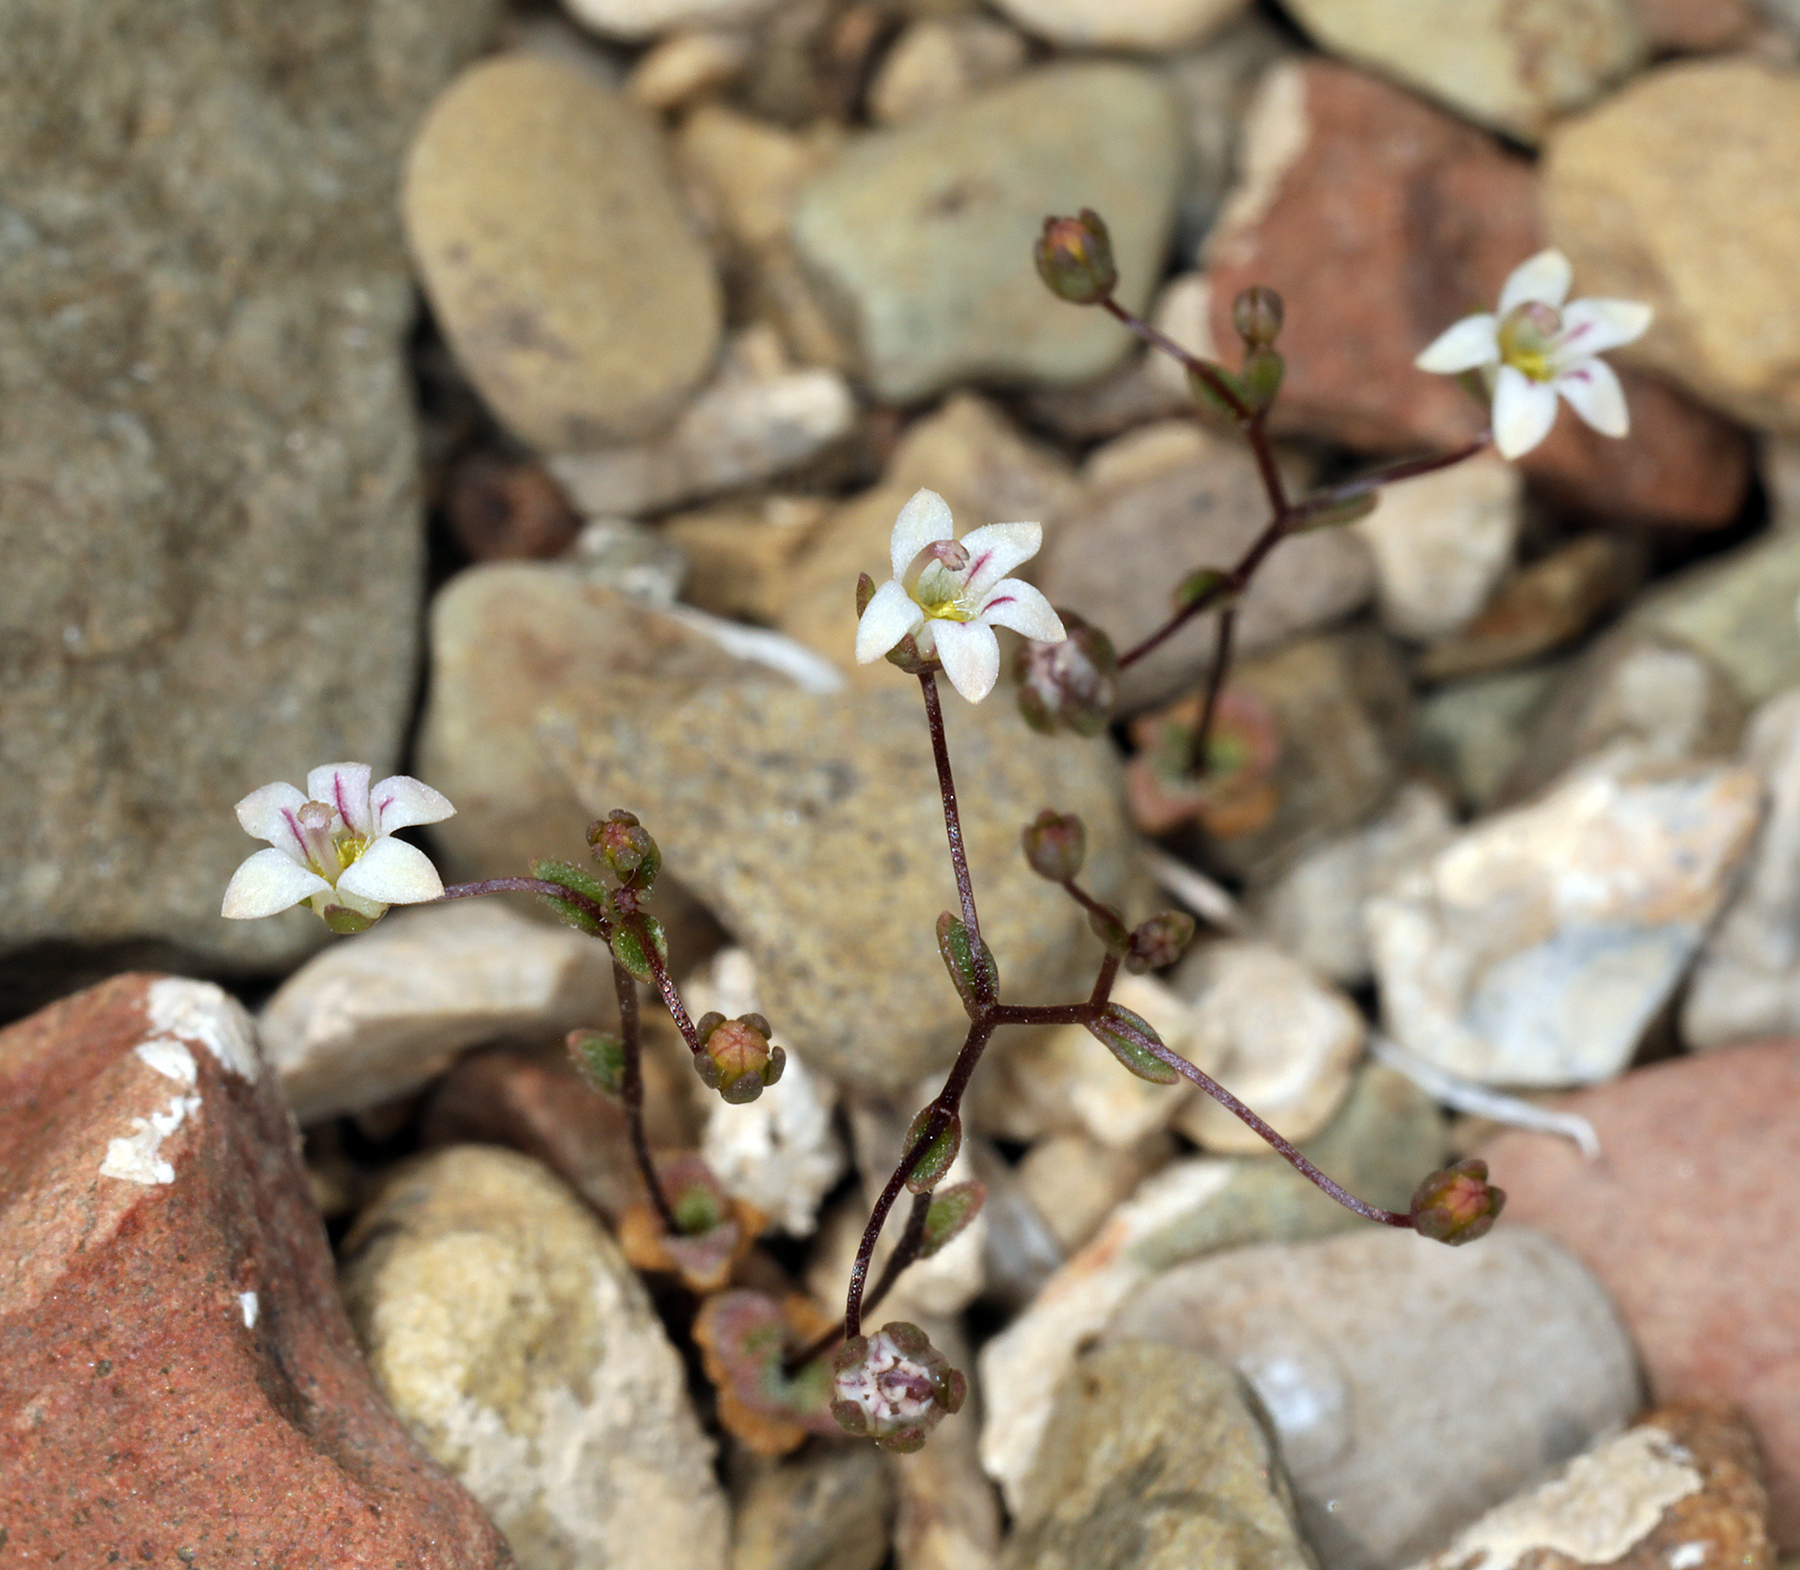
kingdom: Plantae
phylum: Tracheophyta
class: Magnoliopsida
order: Asterales
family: Campanulaceae
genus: Nemacladus
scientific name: Nemacladus inyoensis
